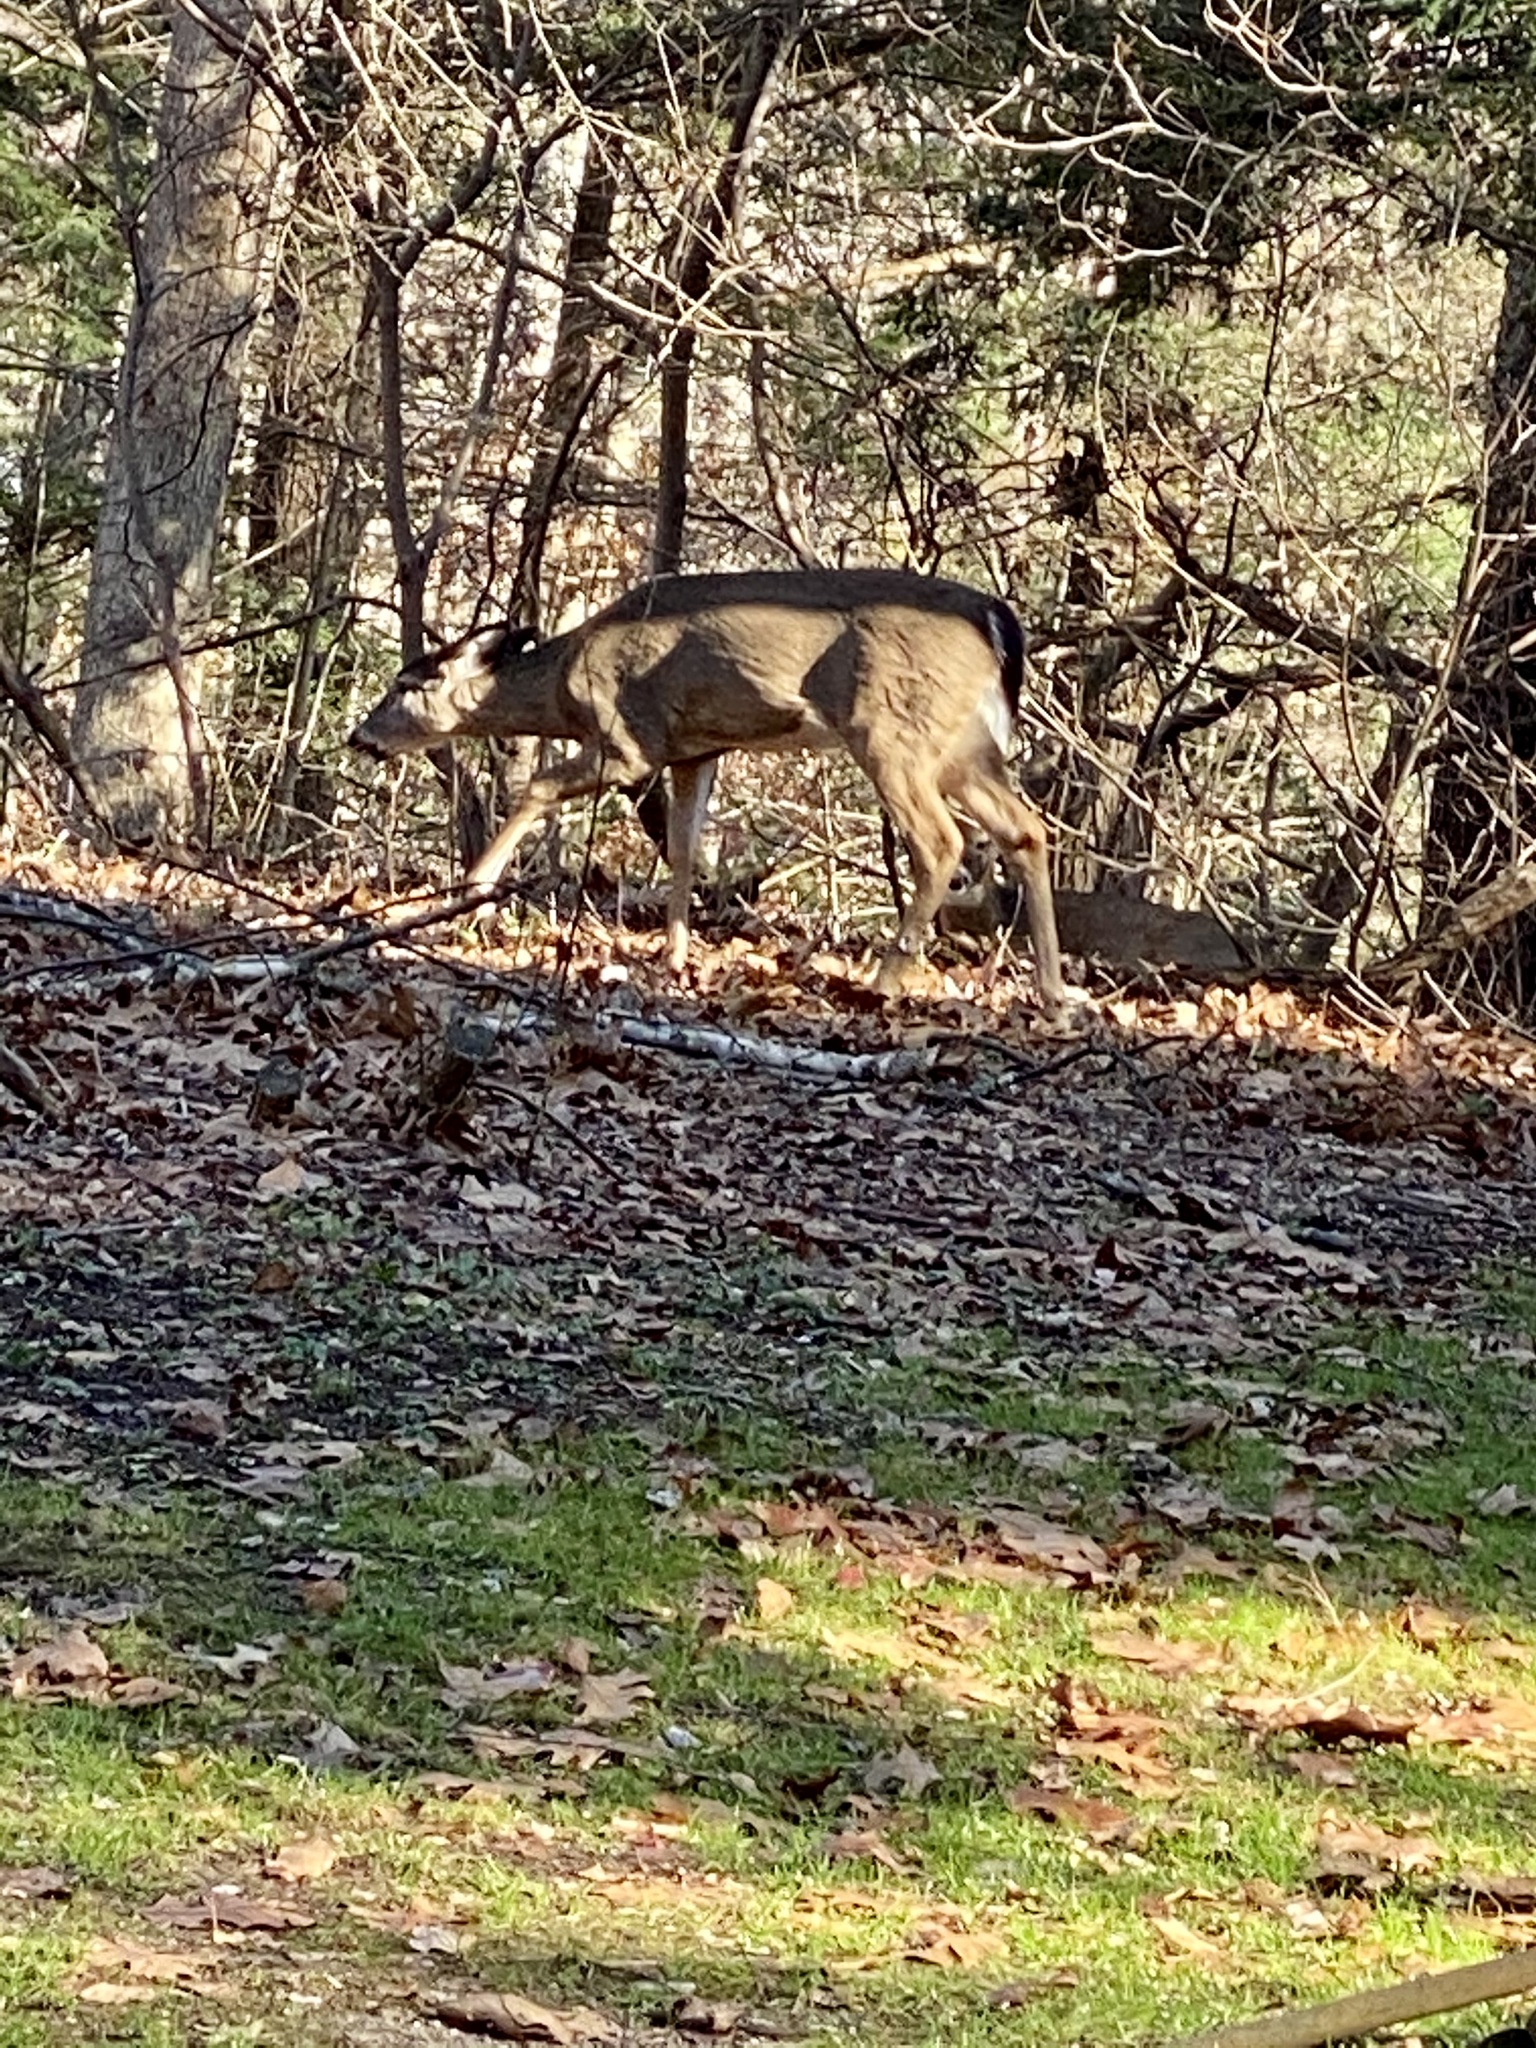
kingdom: Animalia
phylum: Chordata
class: Mammalia
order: Artiodactyla
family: Cervidae
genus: Odocoileus
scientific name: Odocoileus virginianus
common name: White-tailed deer
